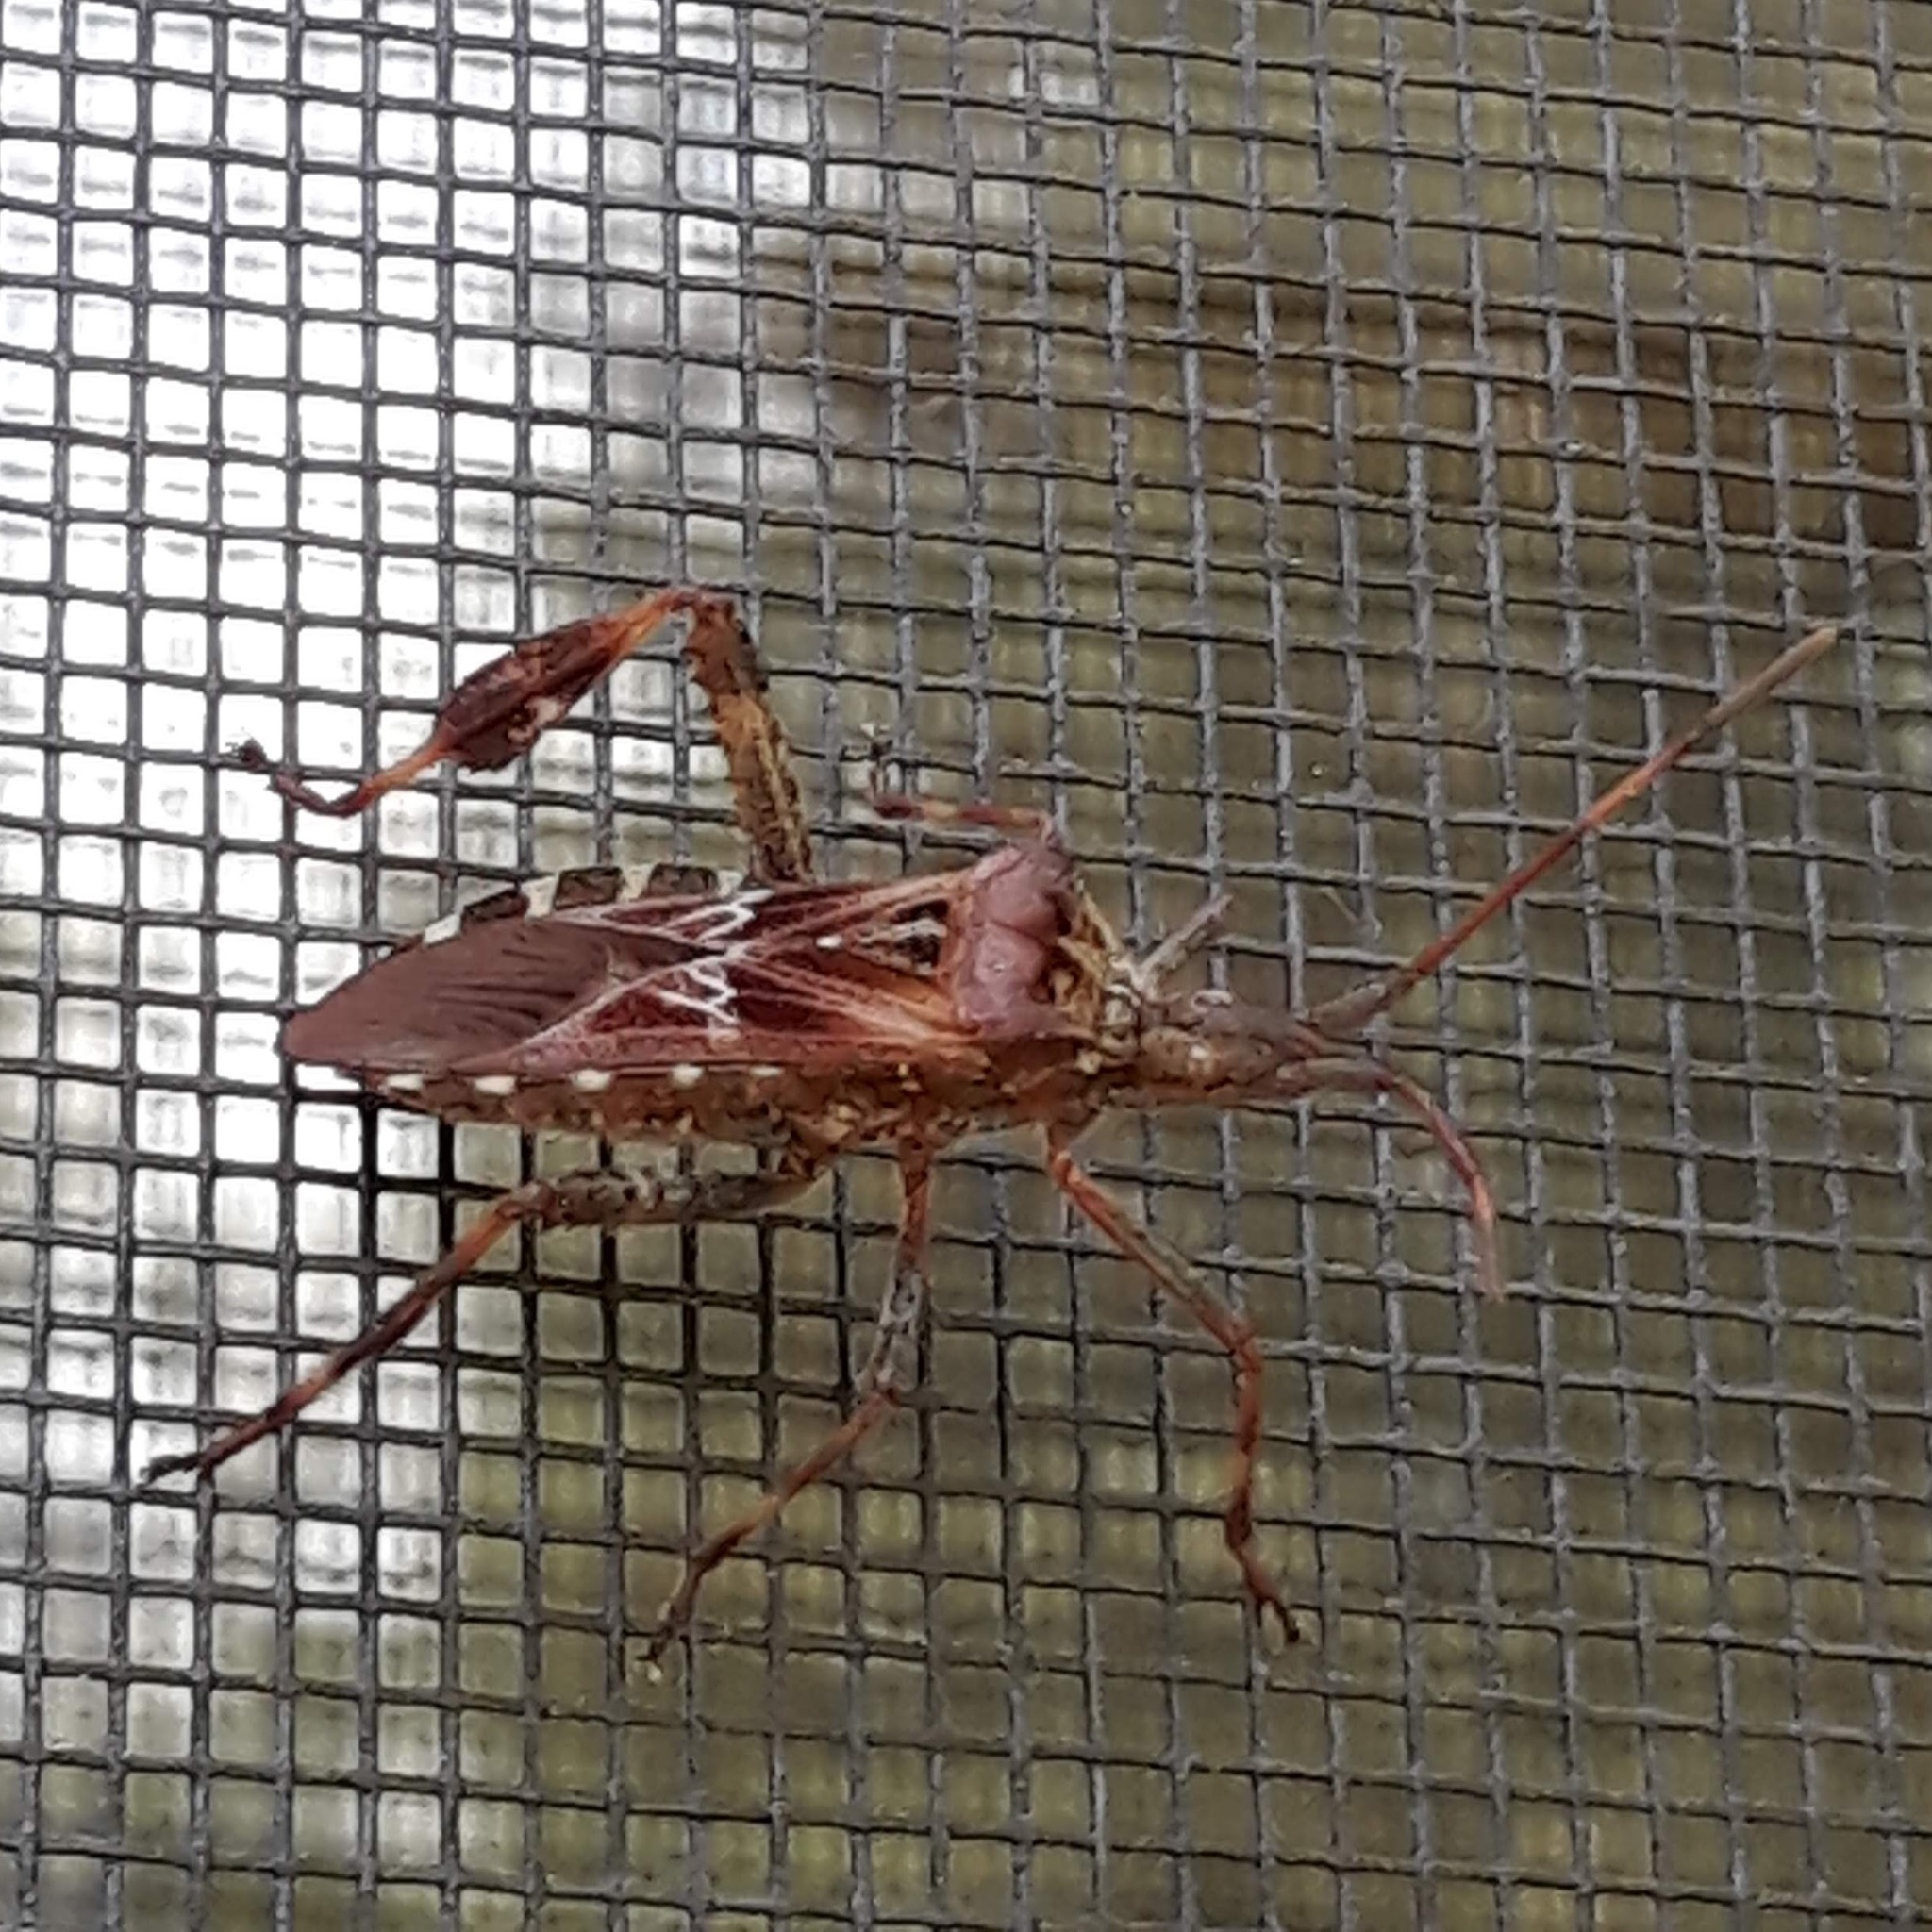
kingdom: Animalia
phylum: Arthropoda
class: Insecta
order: Hemiptera
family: Coreidae
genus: Leptoglossus
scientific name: Leptoglossus occidentalis
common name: Western conifer-seed bug
